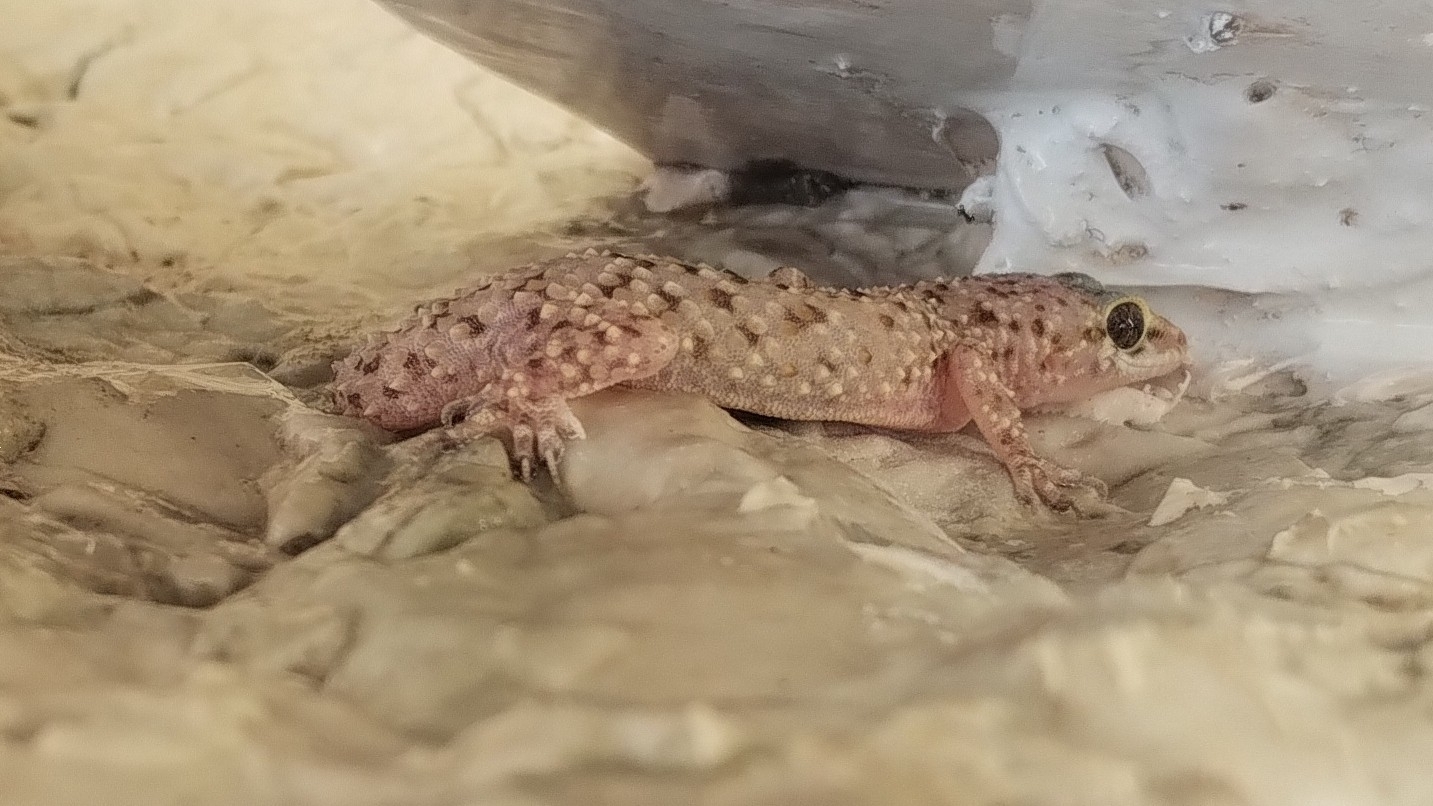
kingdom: Animalia
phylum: Chordata
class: Squamata
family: Gekkonidae
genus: Hemidactylus
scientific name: Hemidactylus turcicus
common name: Turkish gecko
